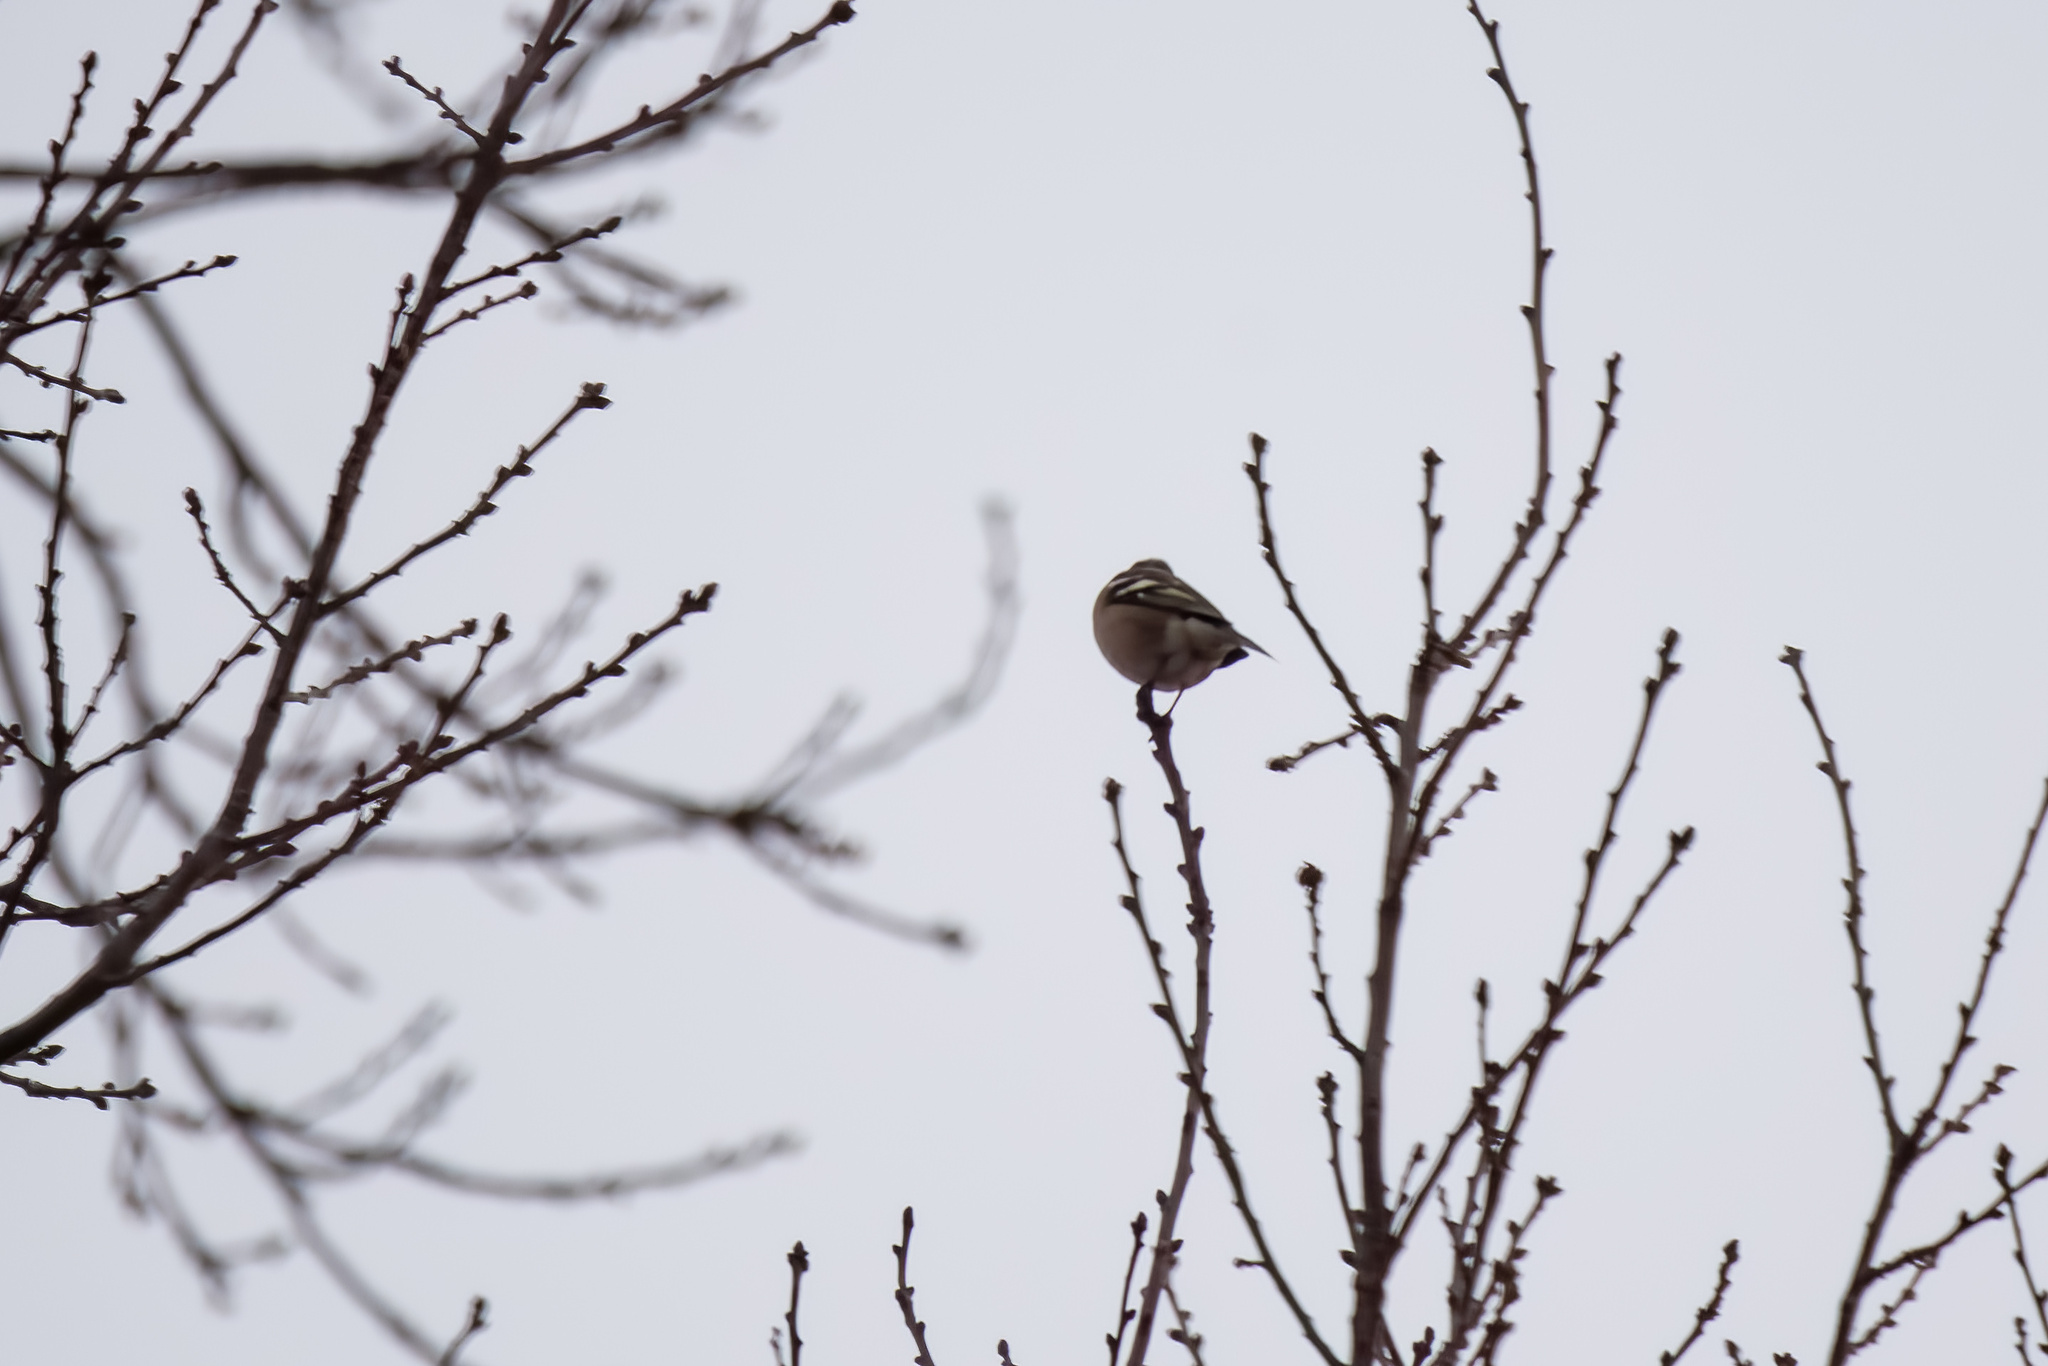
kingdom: Animalia
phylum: Chordata
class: Aves
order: Passeriformes
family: Fringillidae
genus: Fringilla
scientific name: Fringilla coelebs
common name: Common chaffinch
